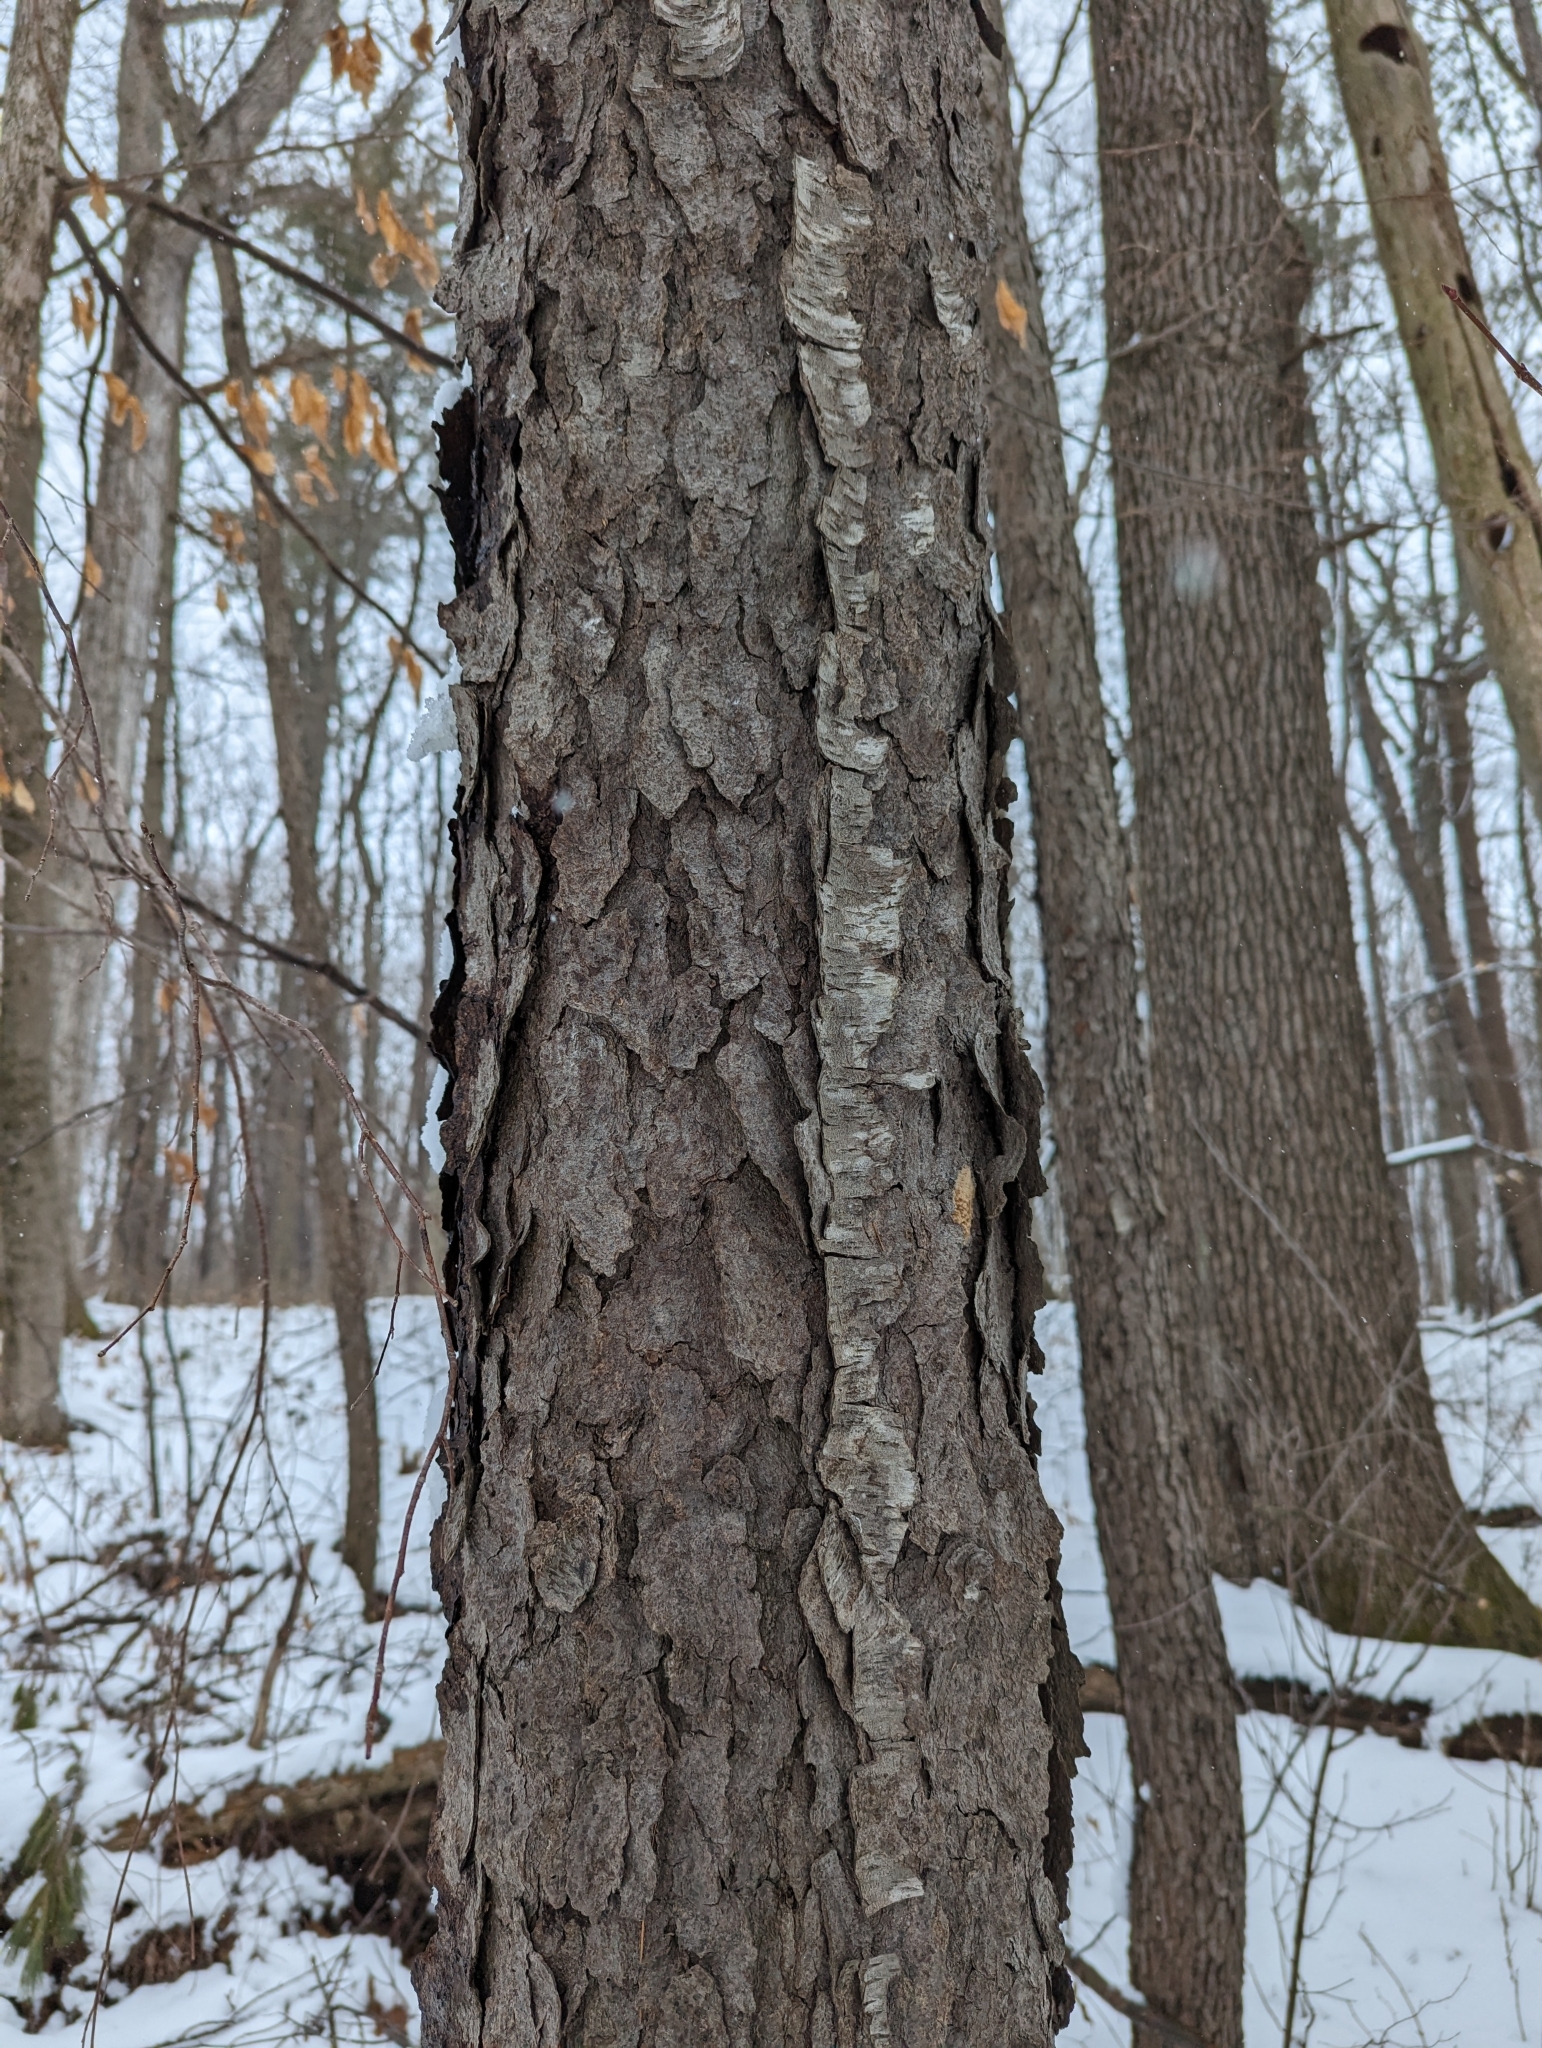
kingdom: Plantae
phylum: Tracheophyta
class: Magnoliopsida
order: Rosales
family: Rosaceae
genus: Prunus
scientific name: Prunus serotina
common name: Black cherry
